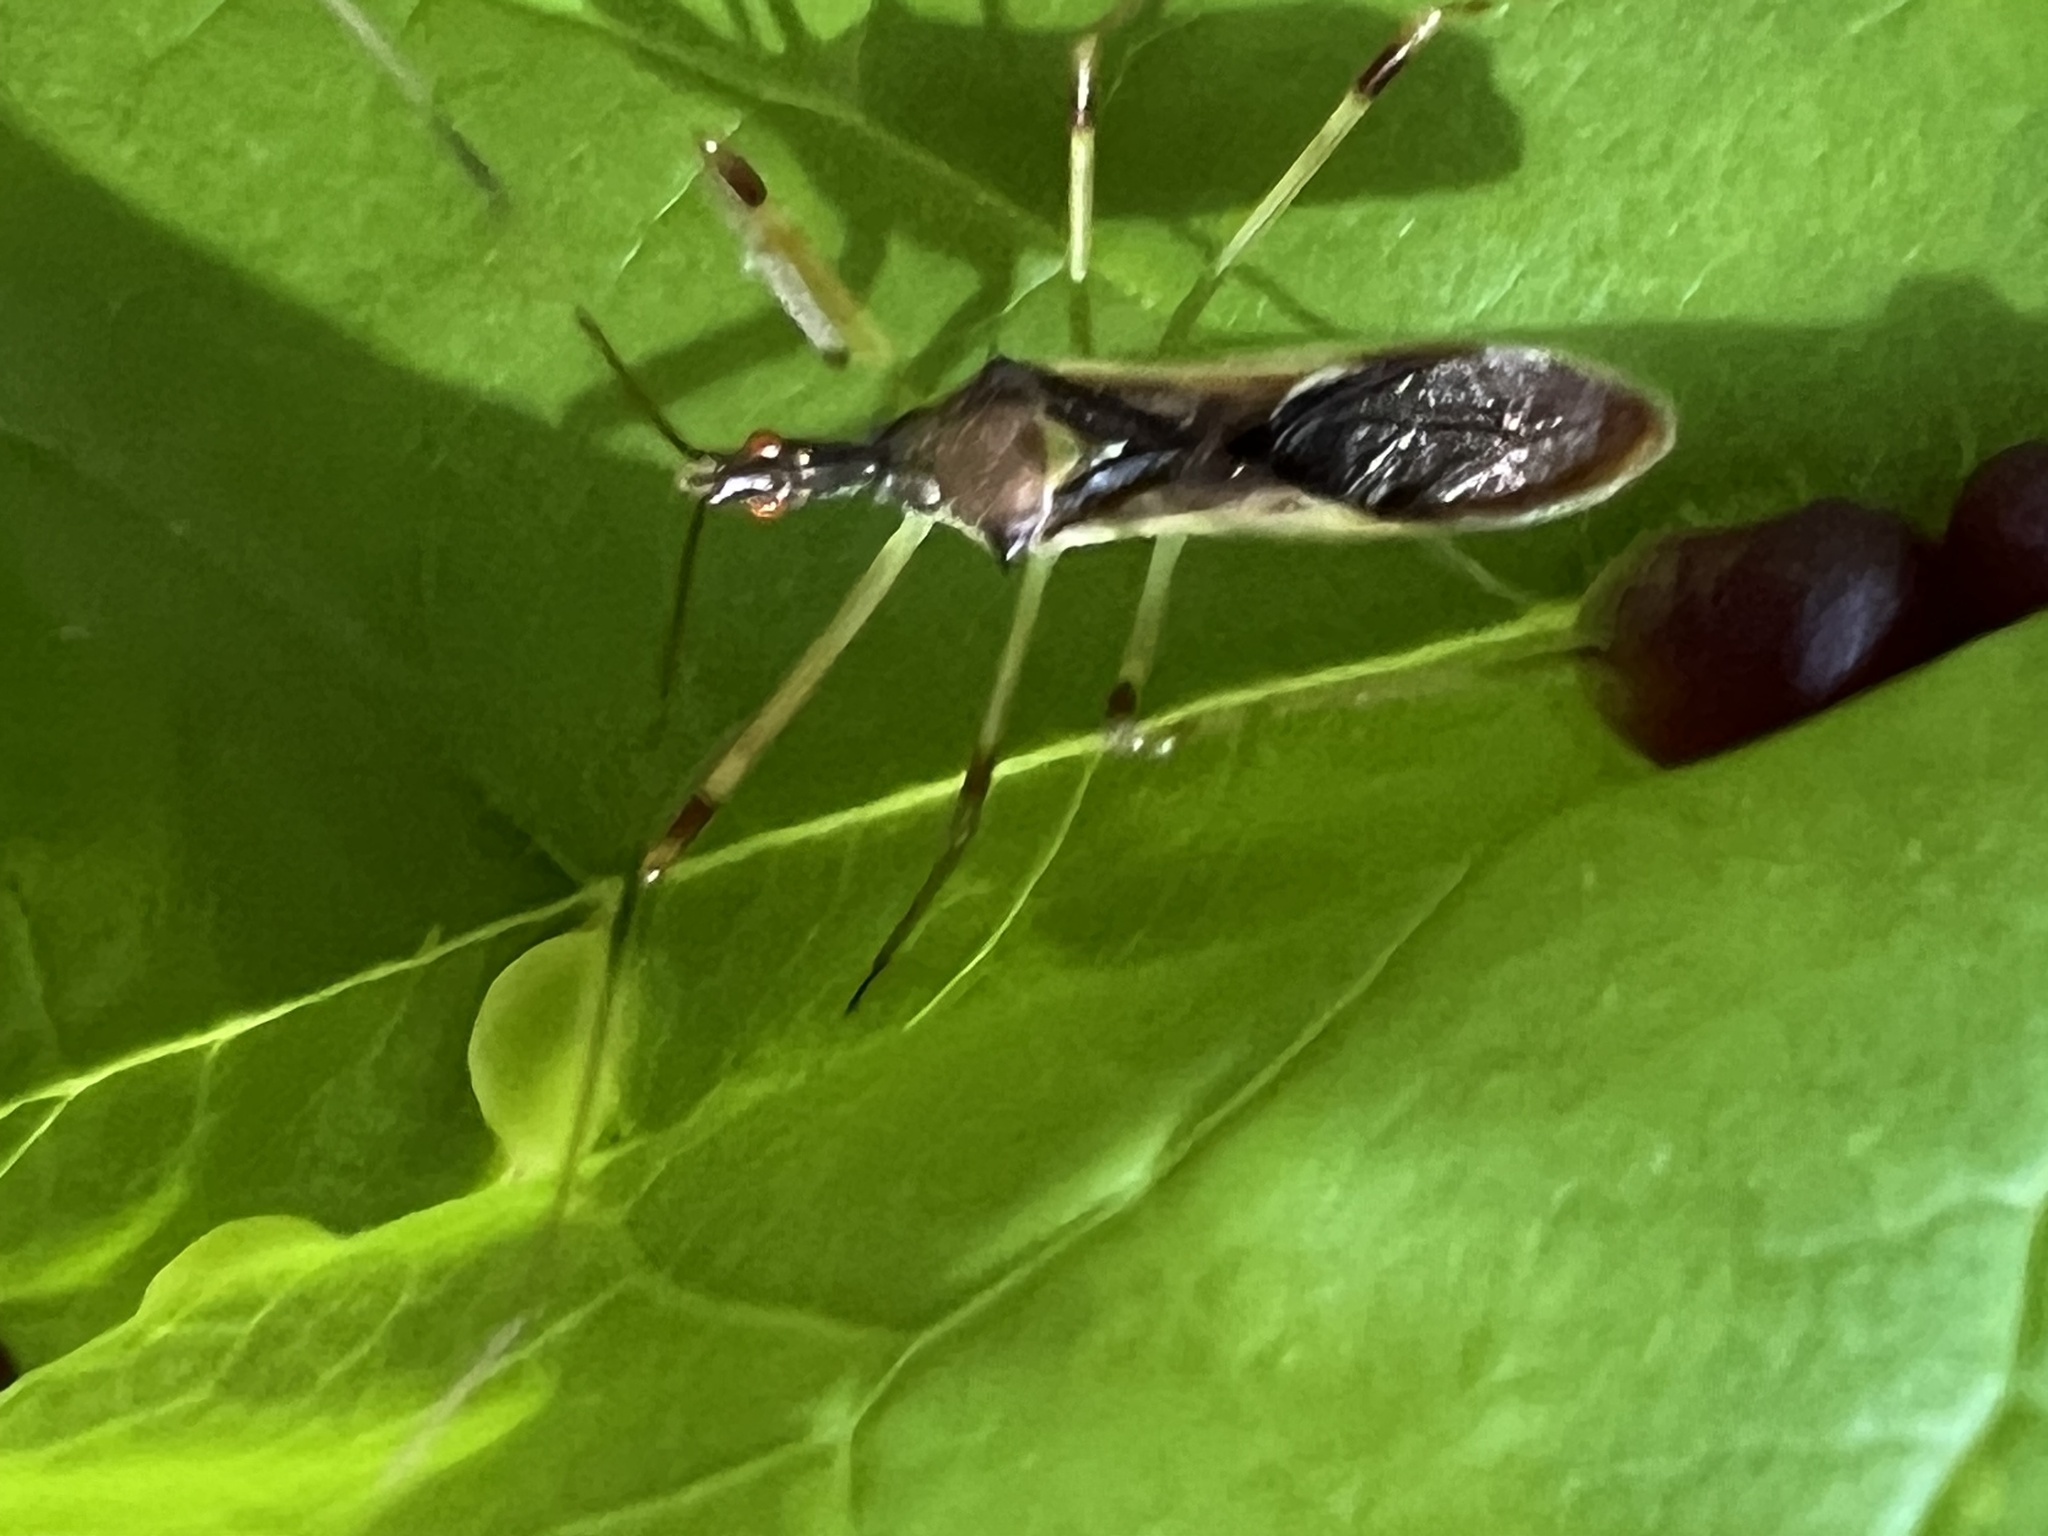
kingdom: Animalia
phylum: Arthropoda
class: Insecta
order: Hemiptera
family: Reduviidae
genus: Zelus
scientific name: Zelus luridus
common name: Pale green assassin bug
